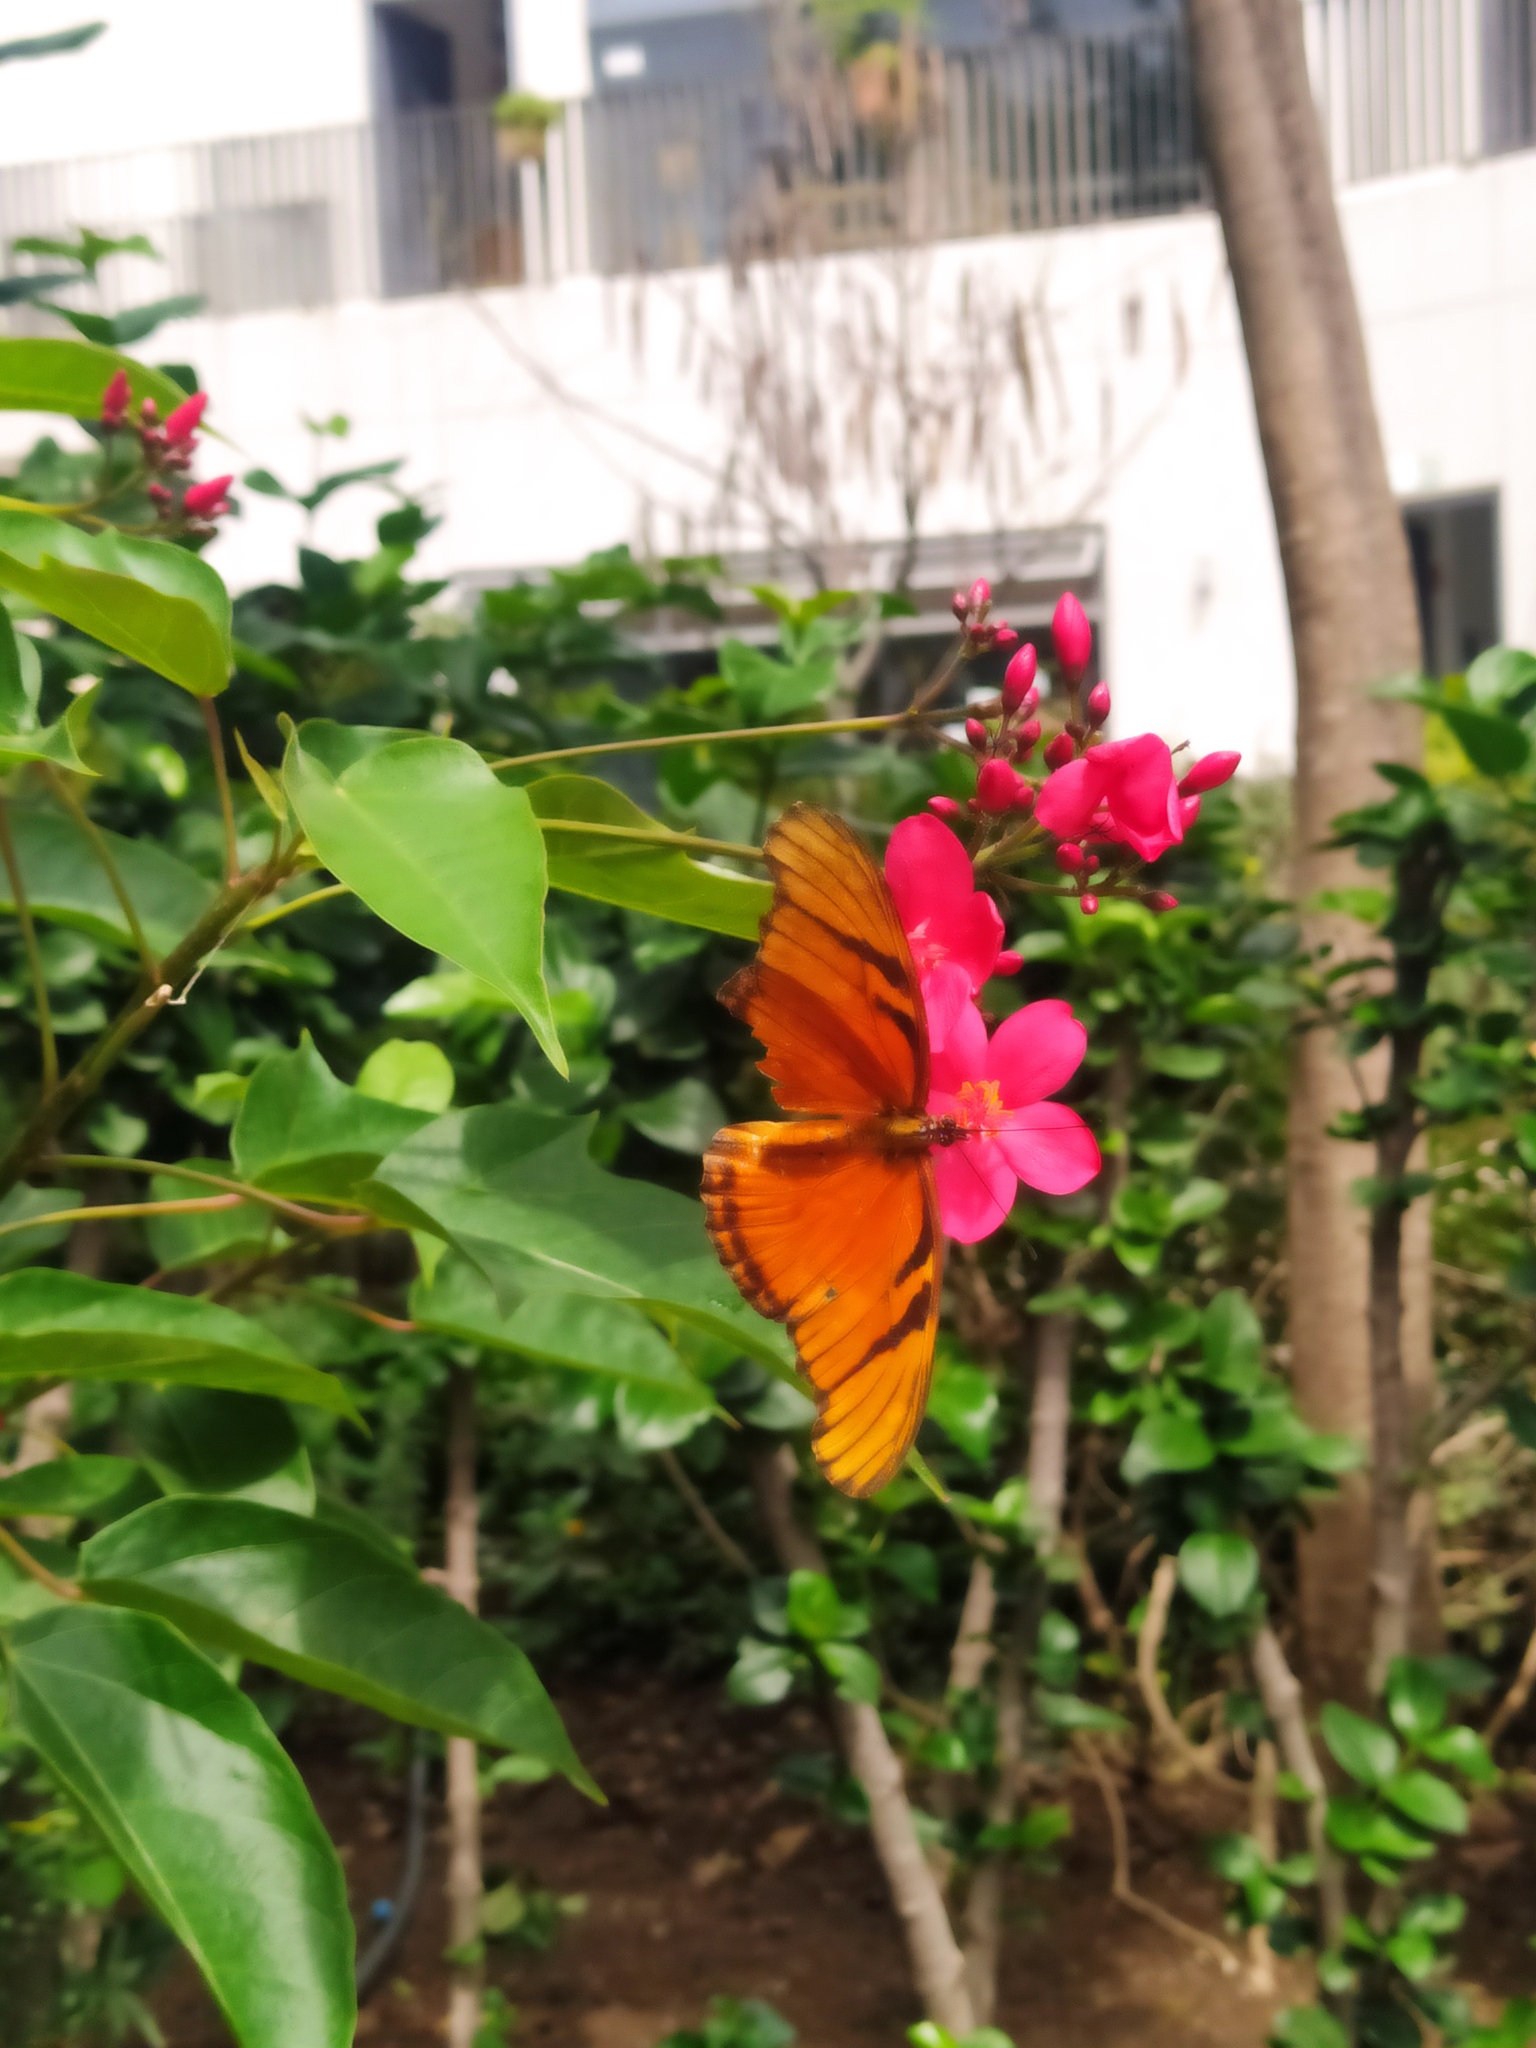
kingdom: Animalia
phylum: Arthropoda
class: Insecta
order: Lepidoptera
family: Nymphalidae
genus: Dione
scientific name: Dione juno
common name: Juno silverspot
